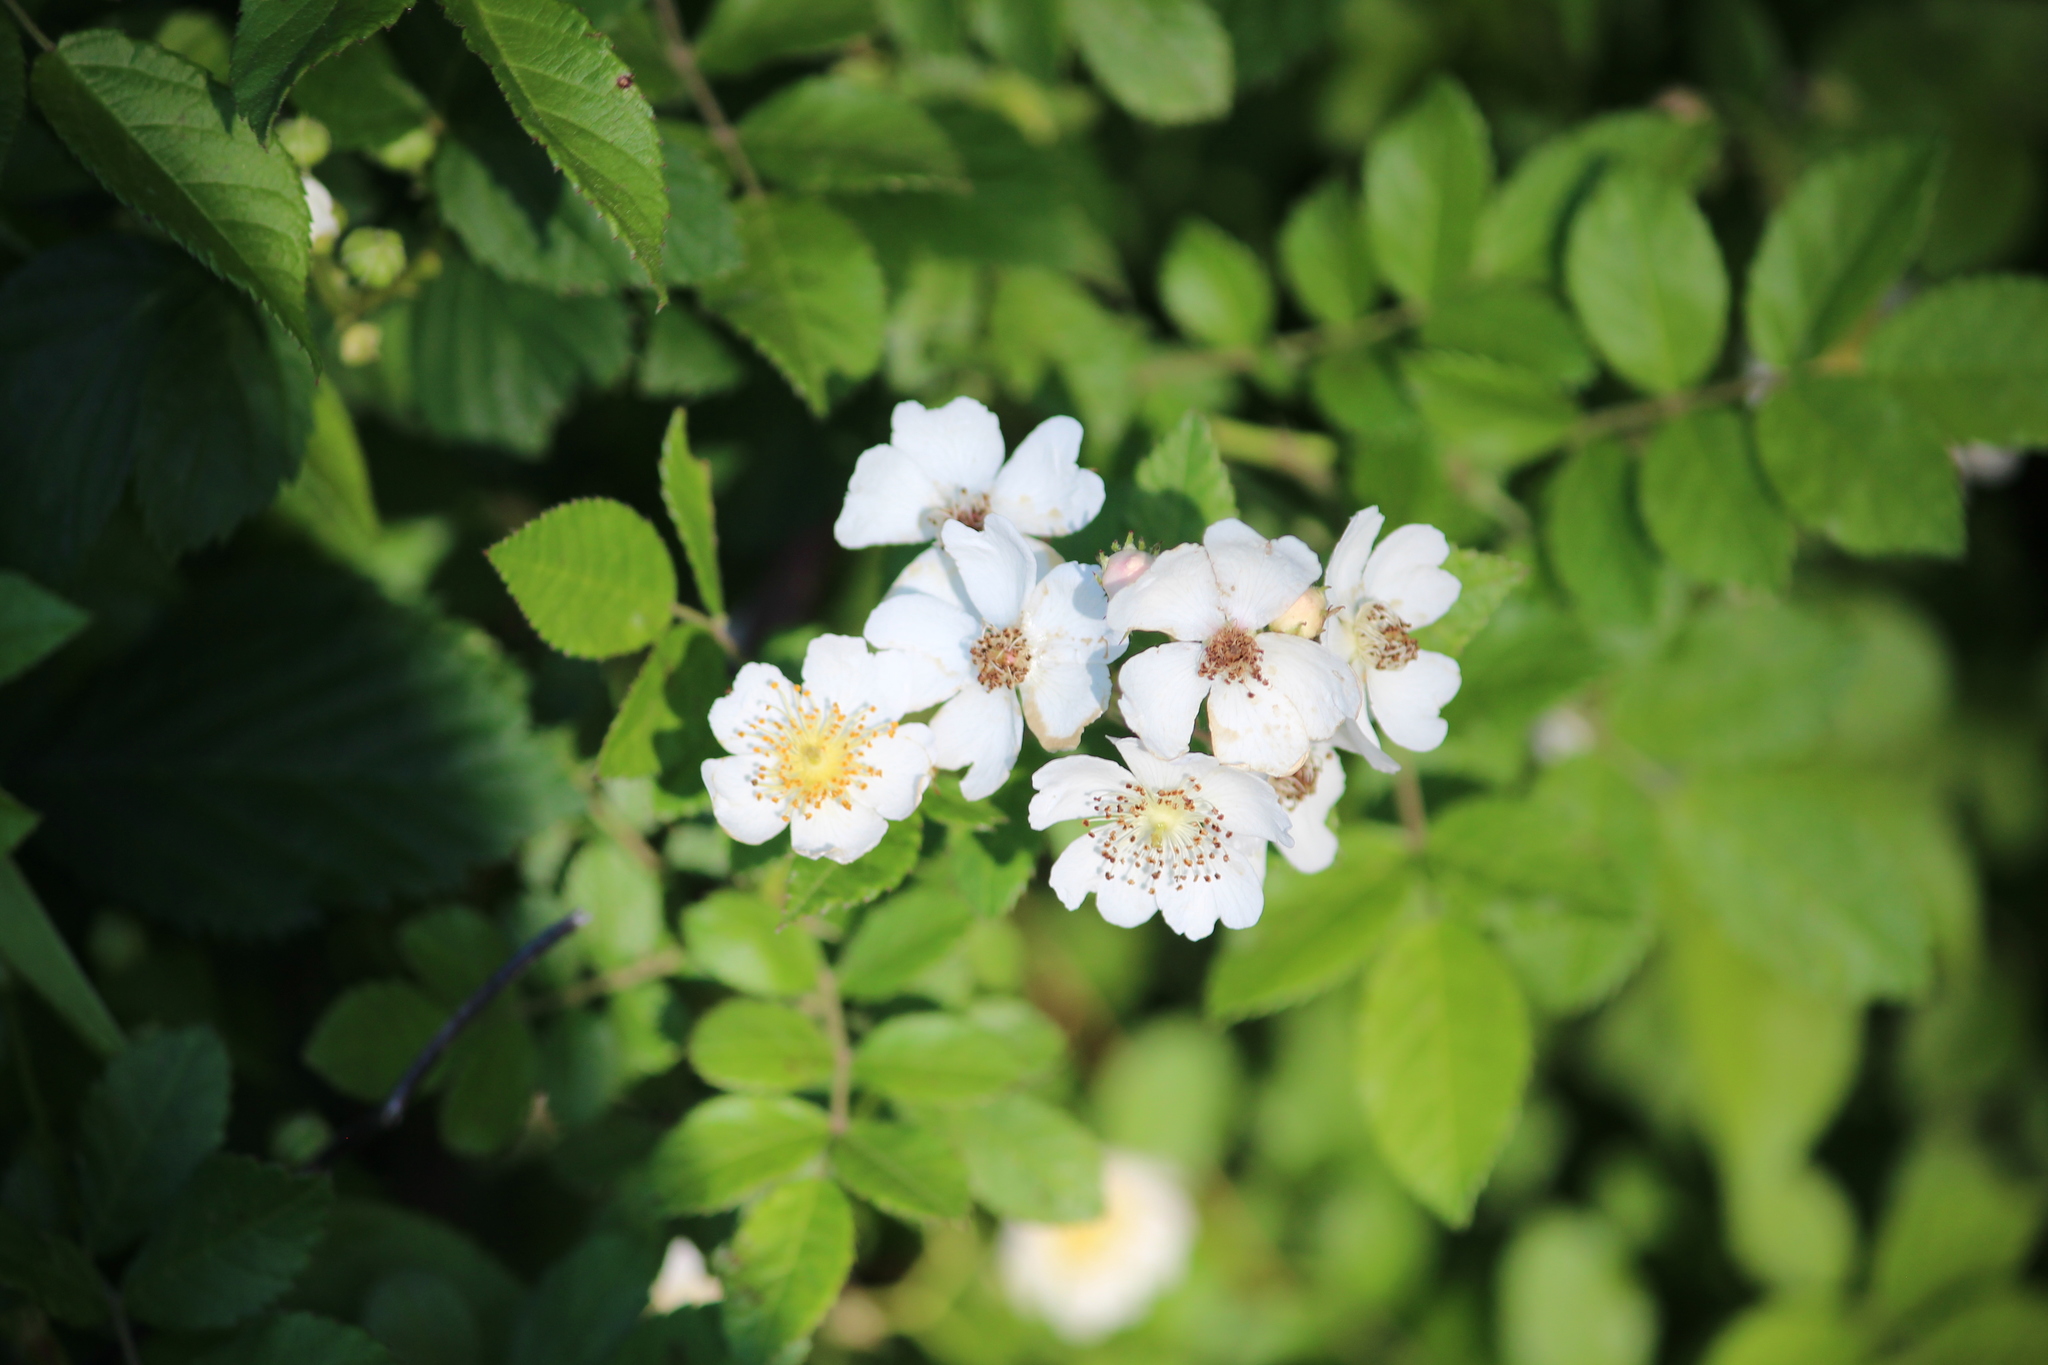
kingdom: Plantae
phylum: Tracheophyta
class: Magnoliopsida
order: Rosales
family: Rosaceae
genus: Rosa
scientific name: Rosa multiflora
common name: Multiflora rose
